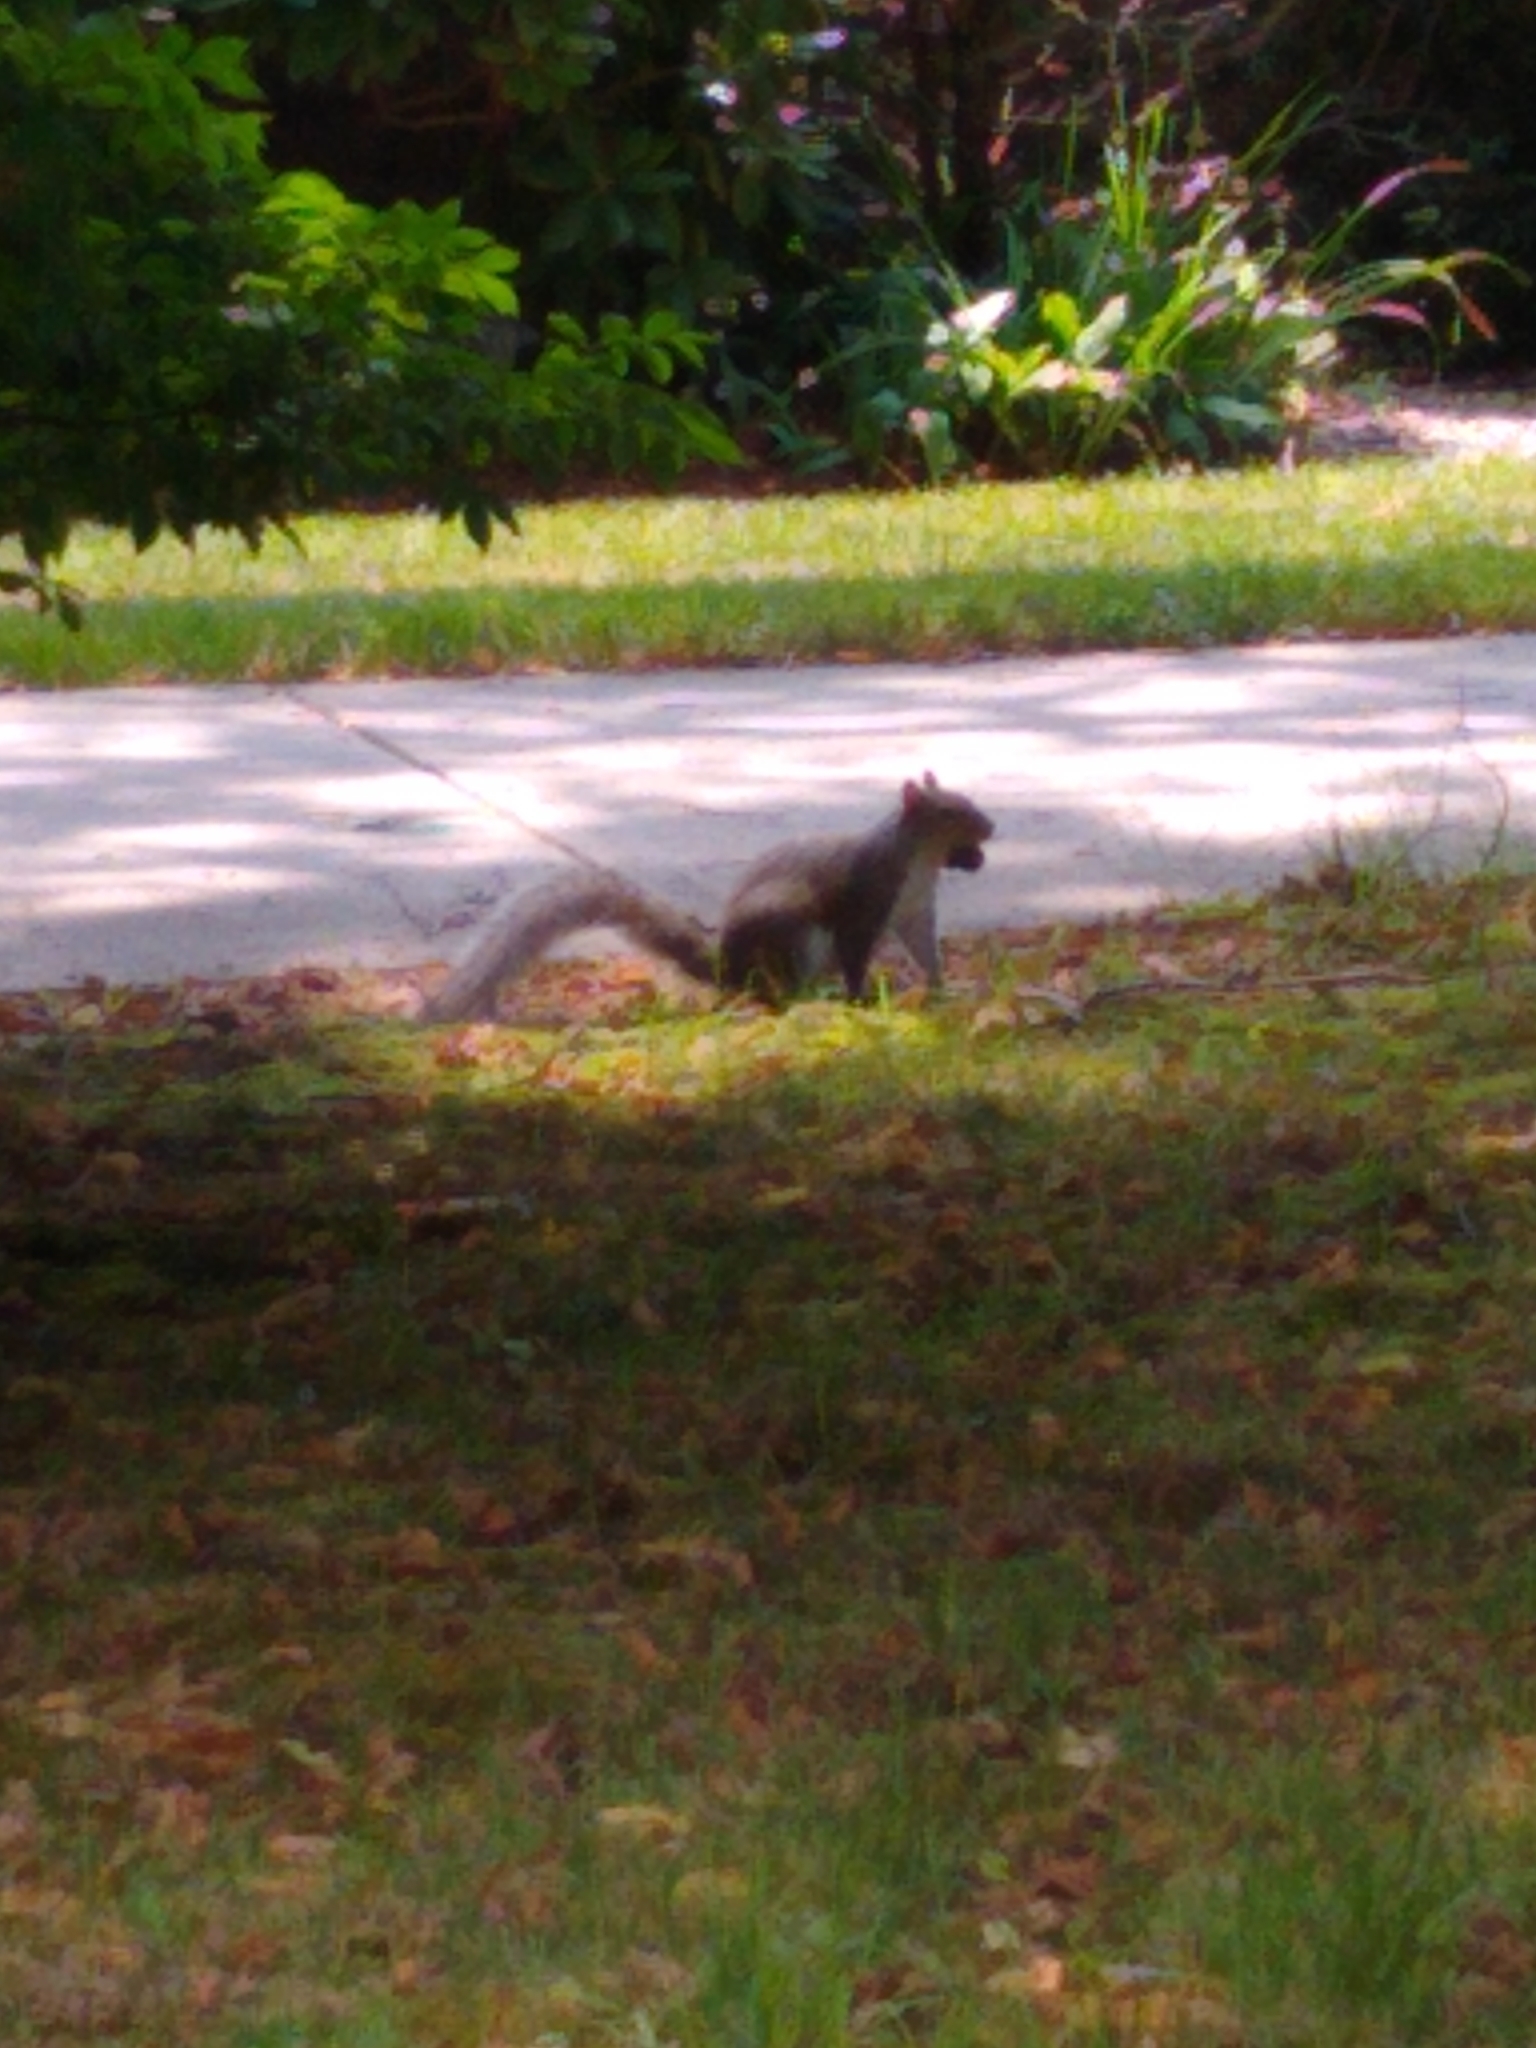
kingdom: Animalia
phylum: Chordata
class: Mammalia
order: Rodentia
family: Sciuridae
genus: Sciurus
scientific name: Sciurus carolinensis
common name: Eastern gray squirrel
